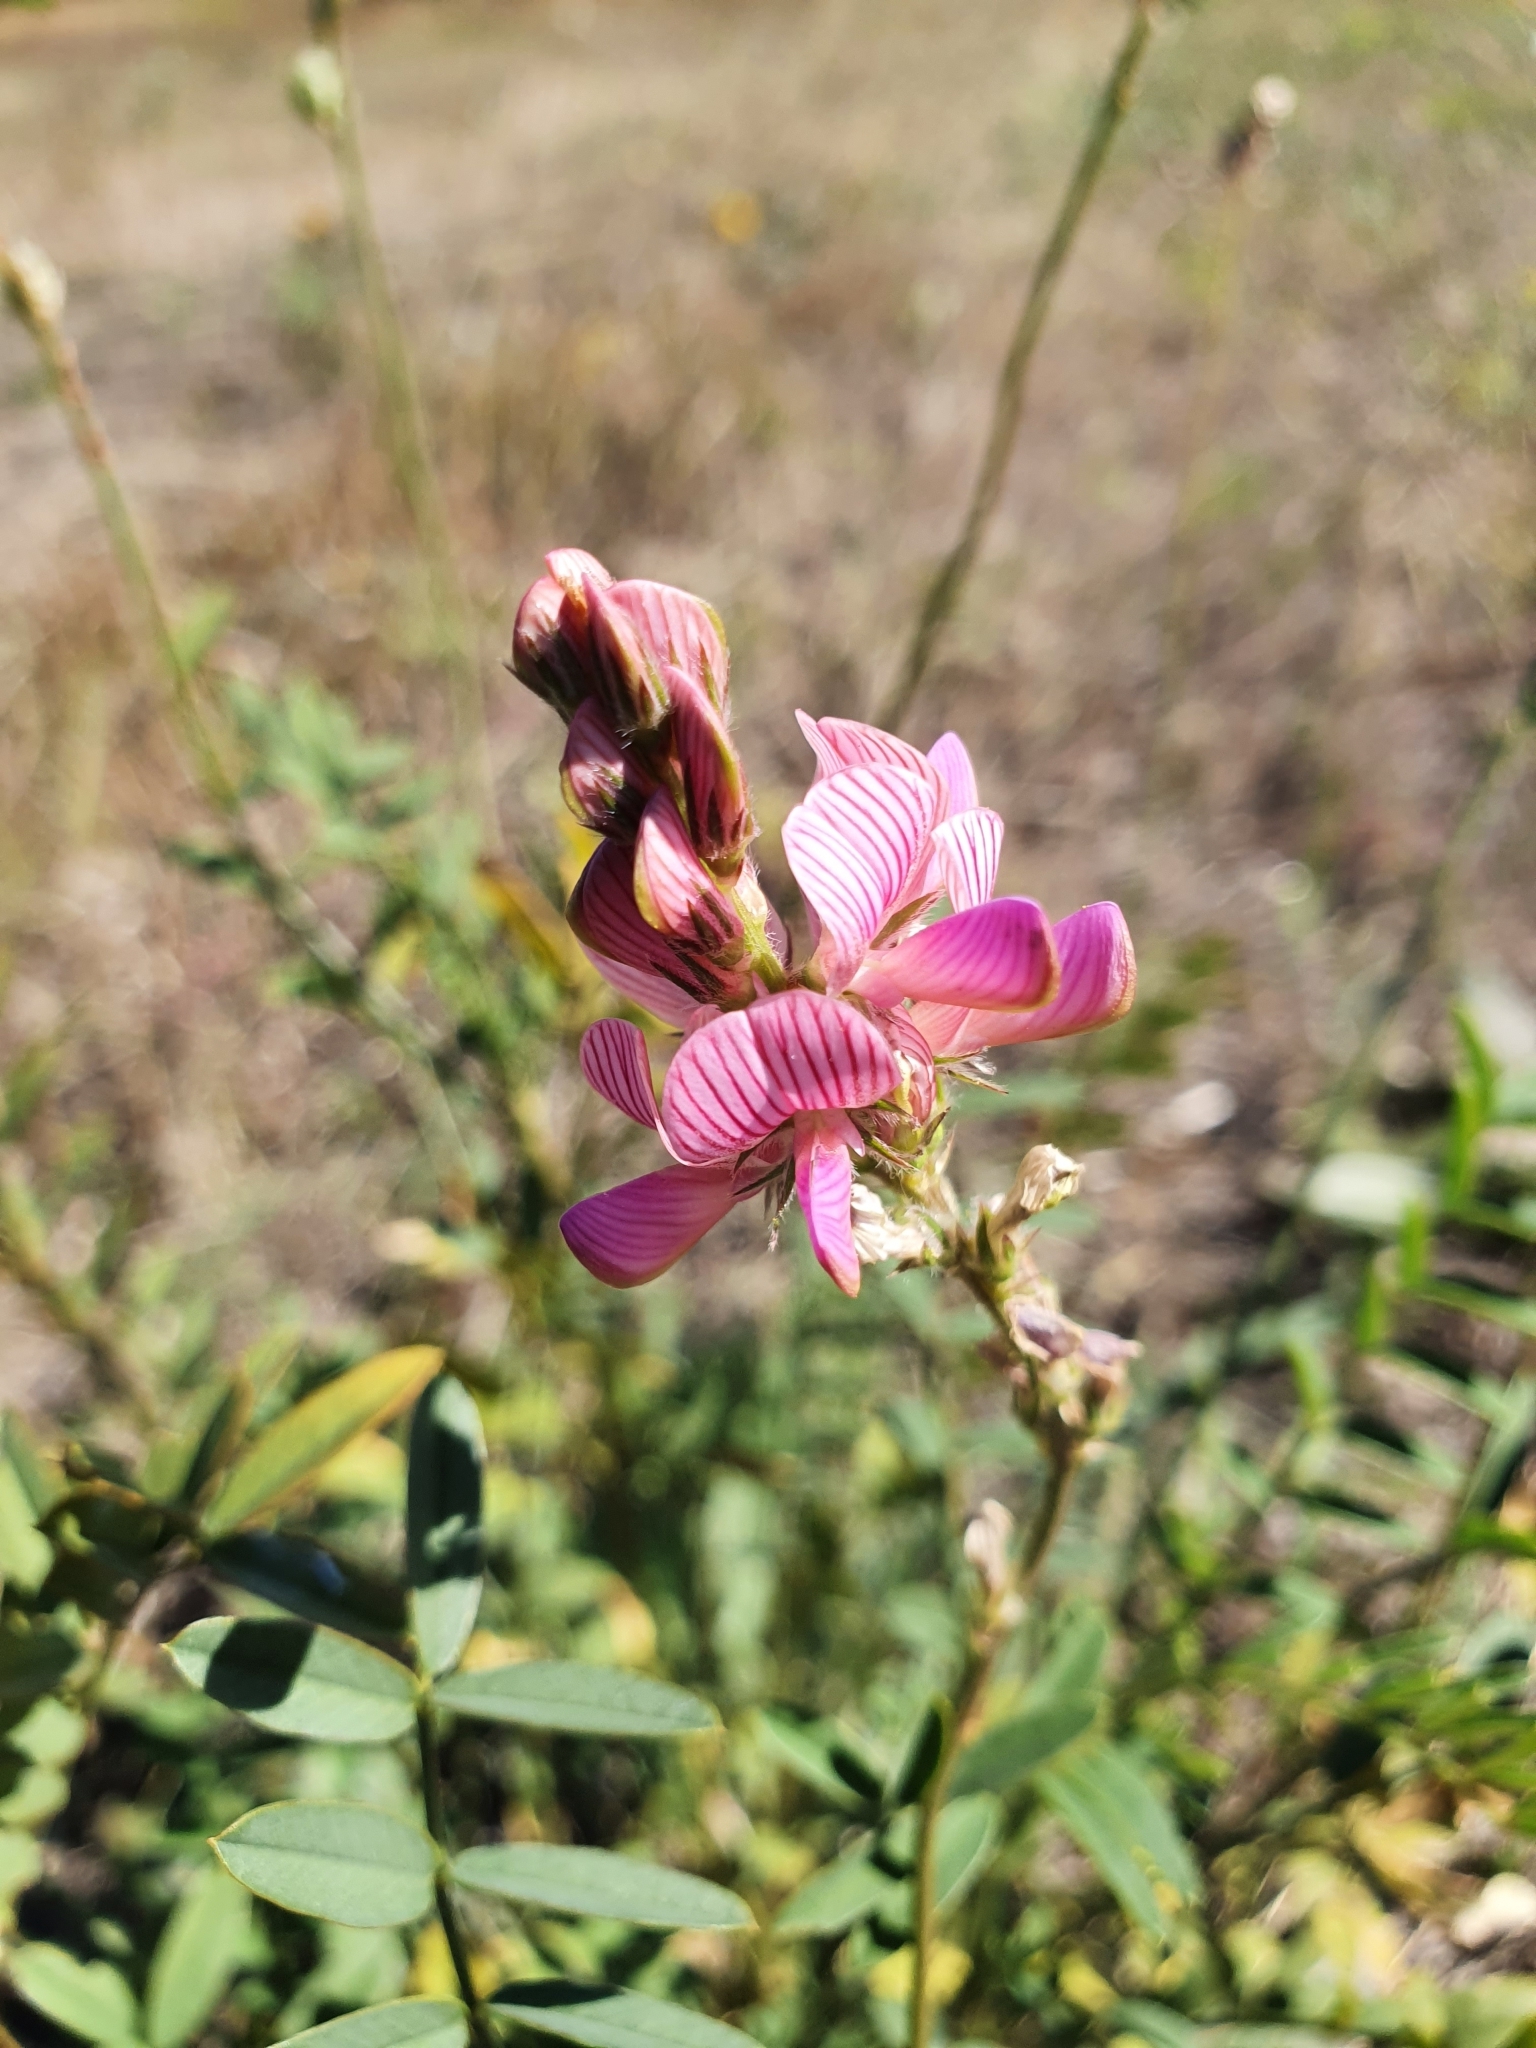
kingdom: Plantae
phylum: Tracheophyta
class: Magnoliopsida
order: Fabales
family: Fabaceae
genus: Onobrychis
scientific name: Onobrychis arenaria
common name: Sand esparcet
